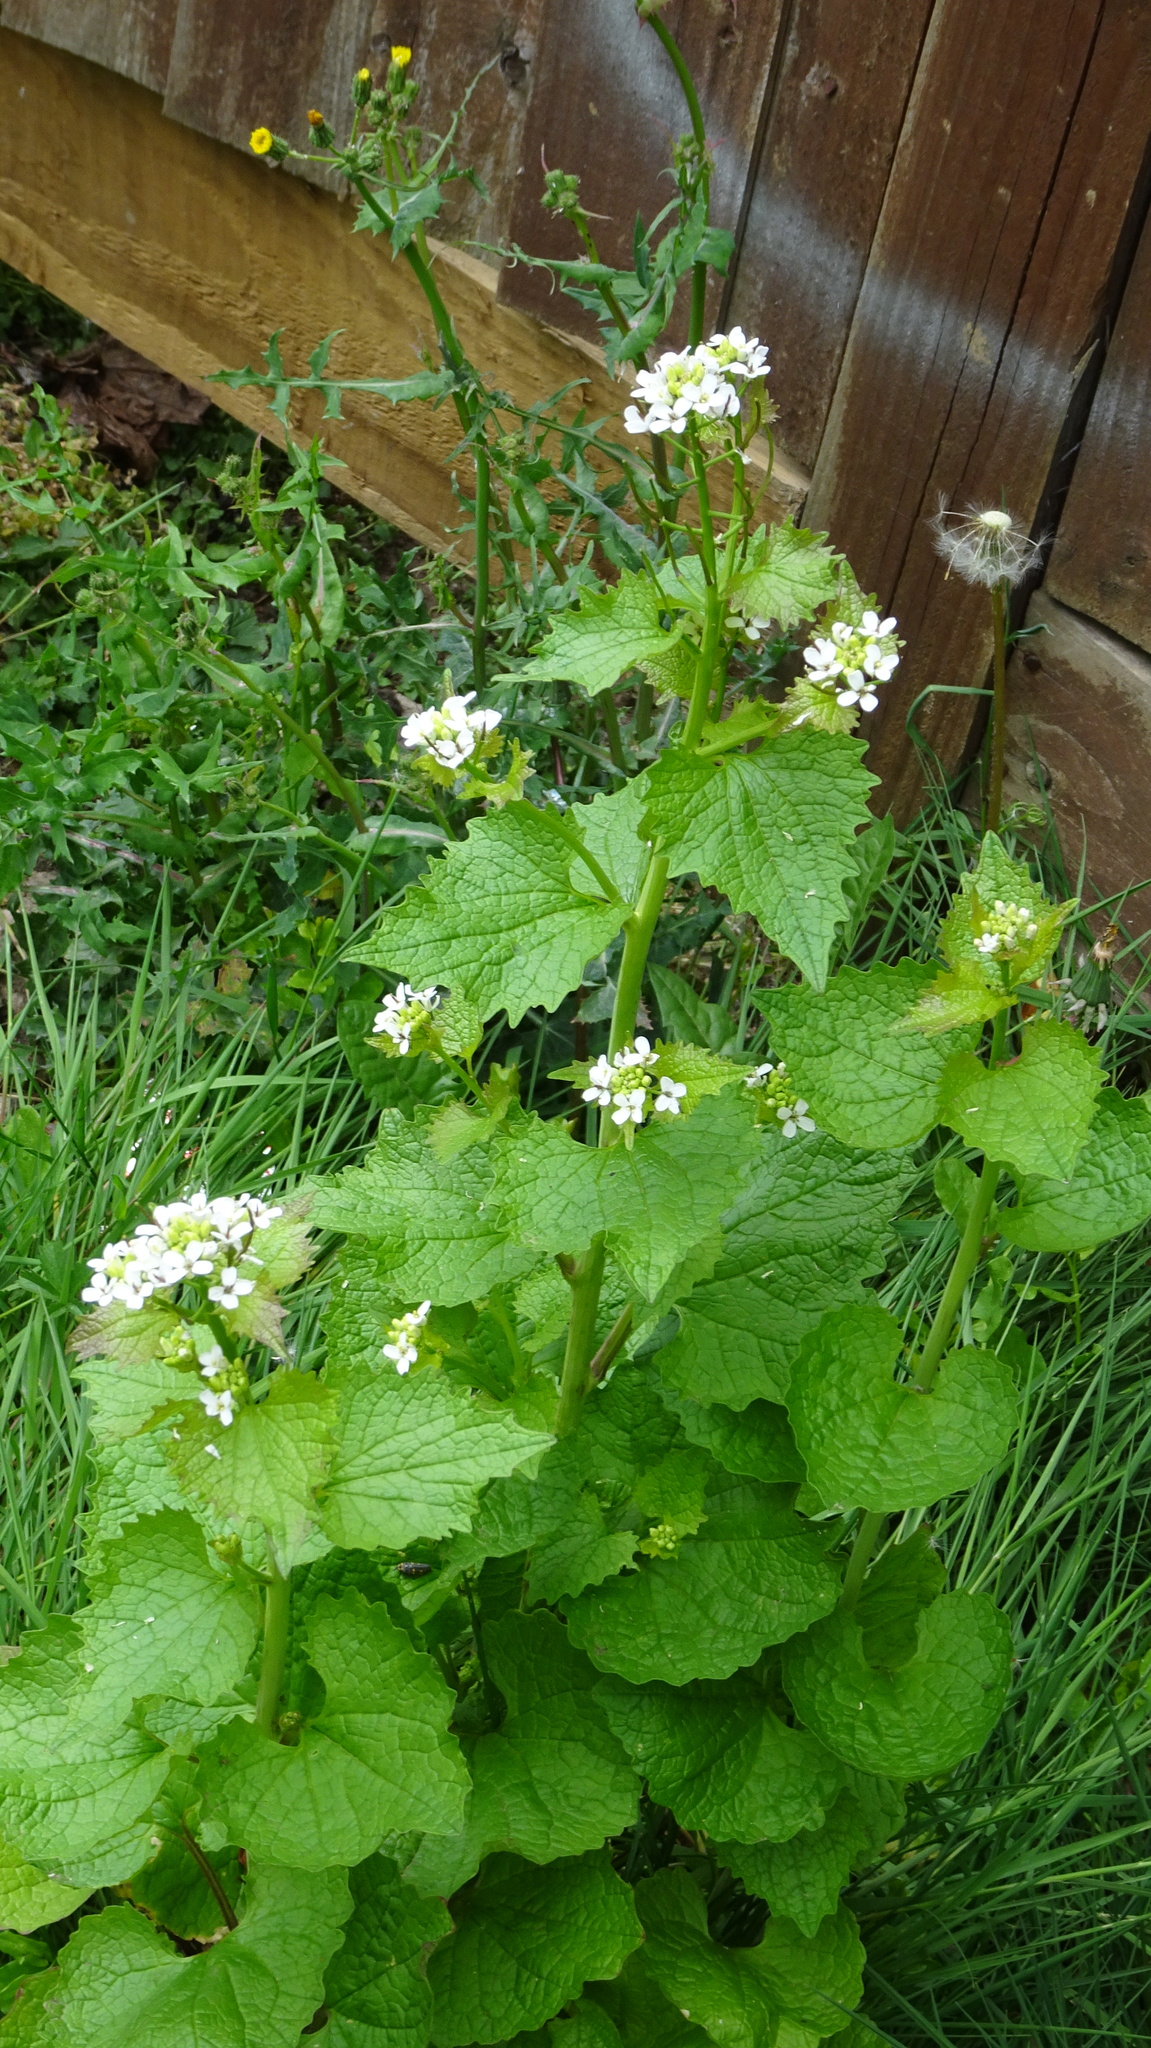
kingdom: Plantae
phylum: Tracheophyta
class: Magnoliopsida
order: Brassicales
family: Brassicaceae
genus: Alliaria
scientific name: Alliaria petiolata
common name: Garlic mustard
